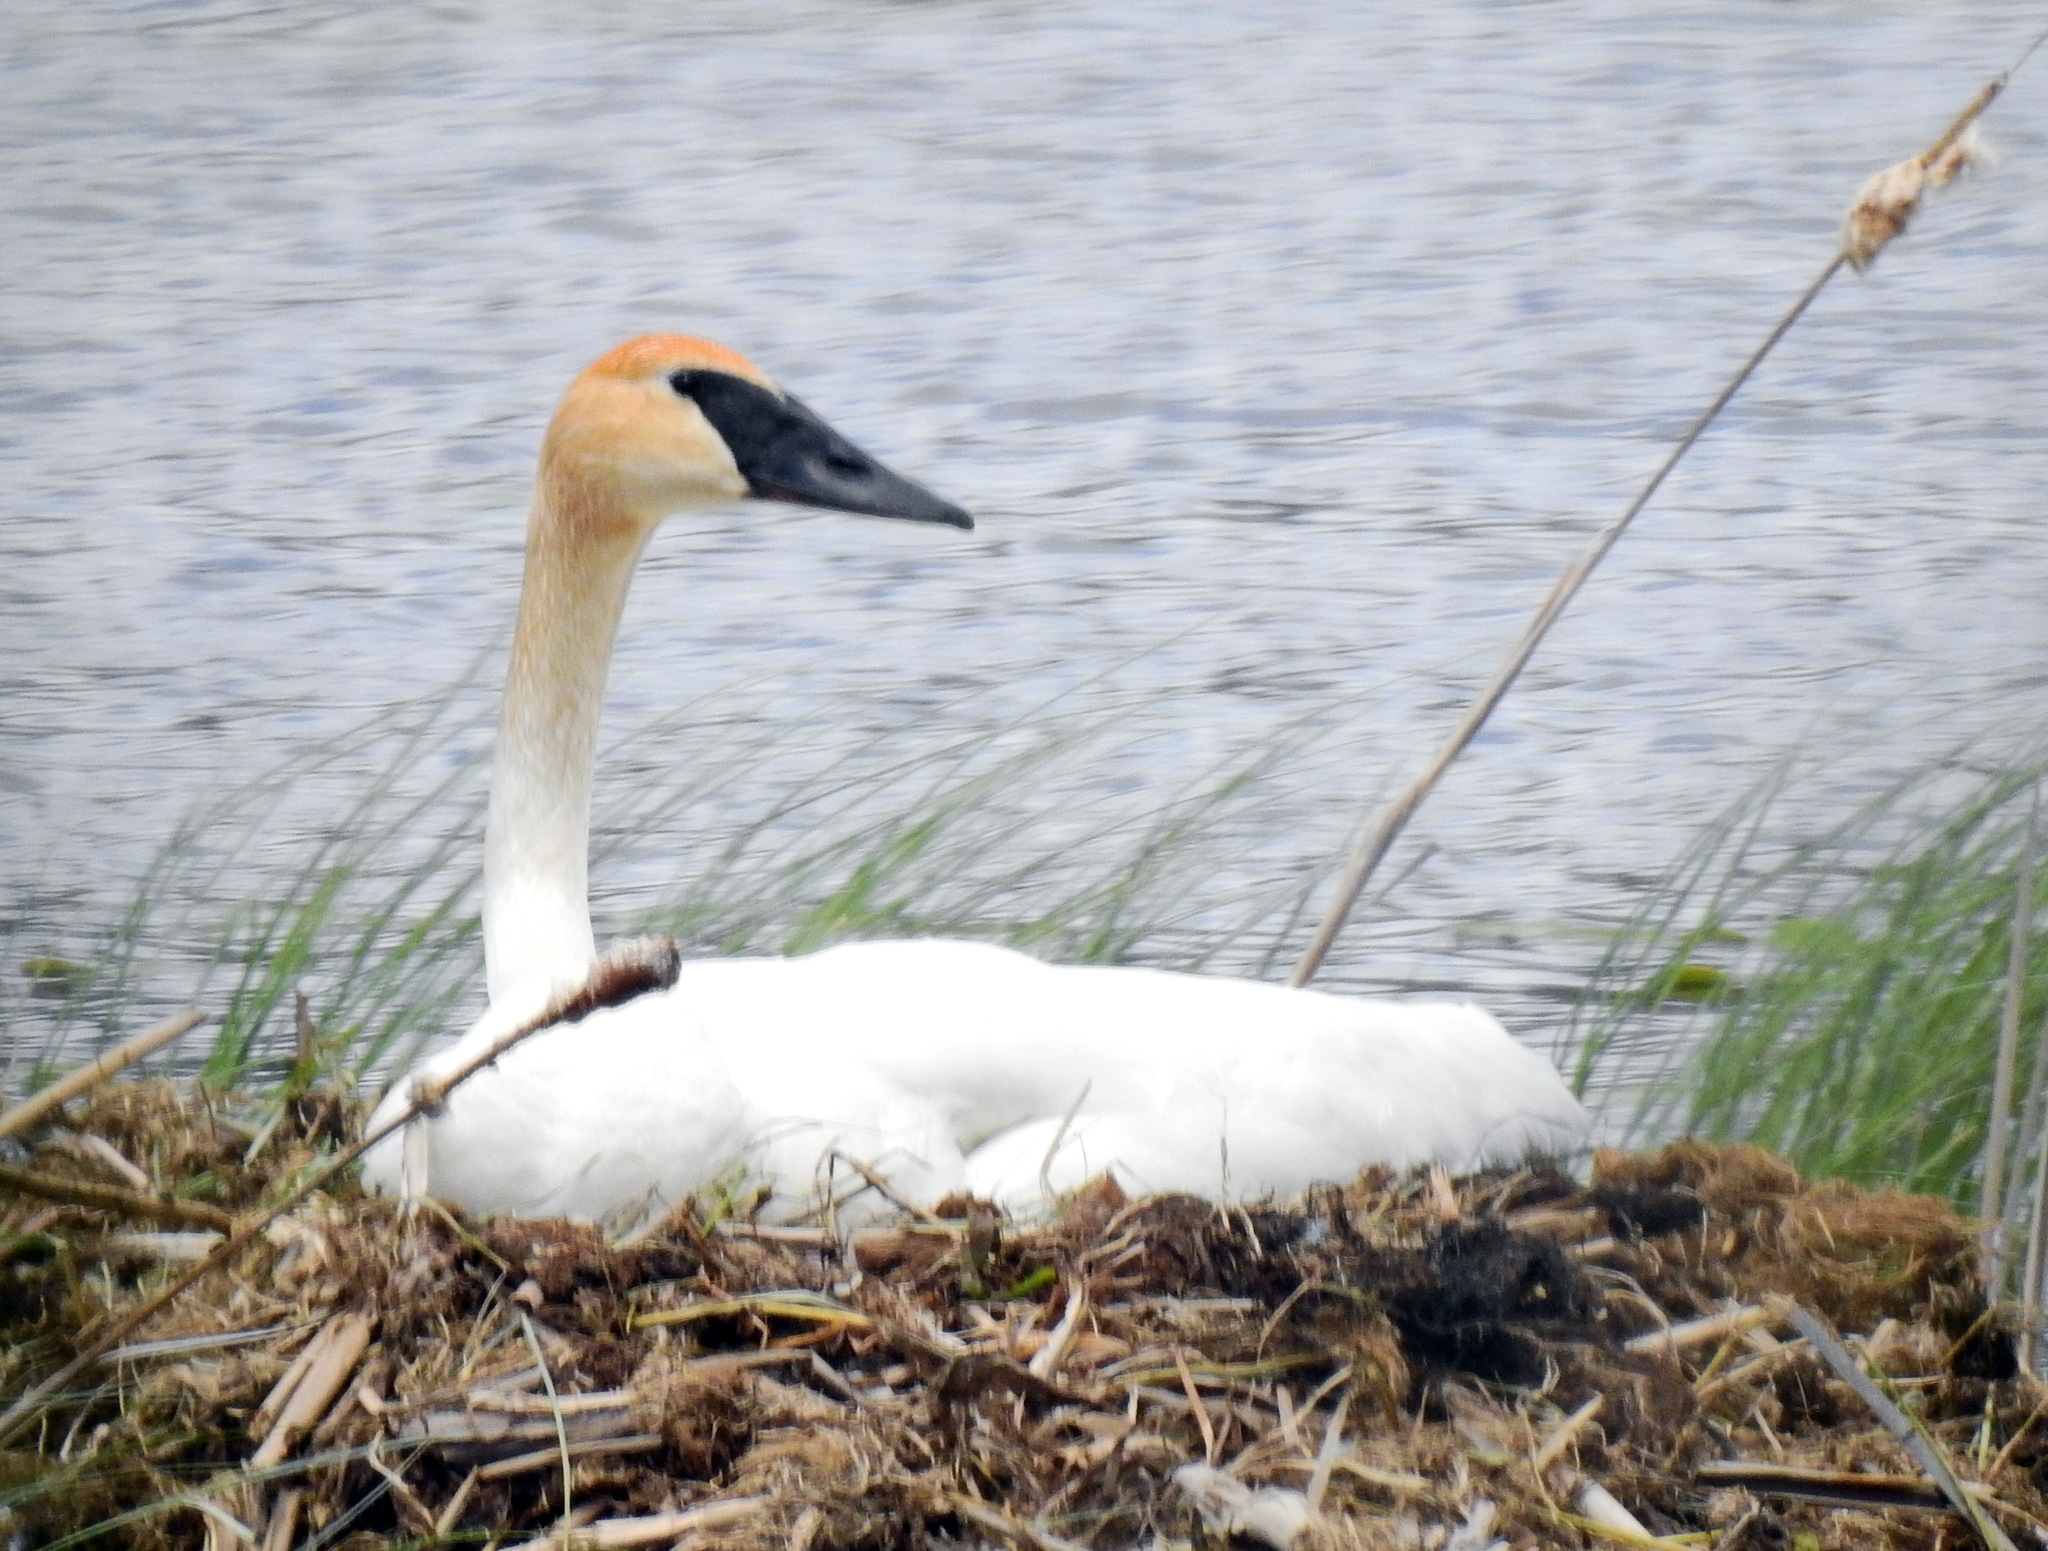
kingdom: Animalia
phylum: Chordata
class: Aves
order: Anseriformes
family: Anatidae
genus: Cygnus
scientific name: Cygnus buccinator
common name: Trumpeter swan
